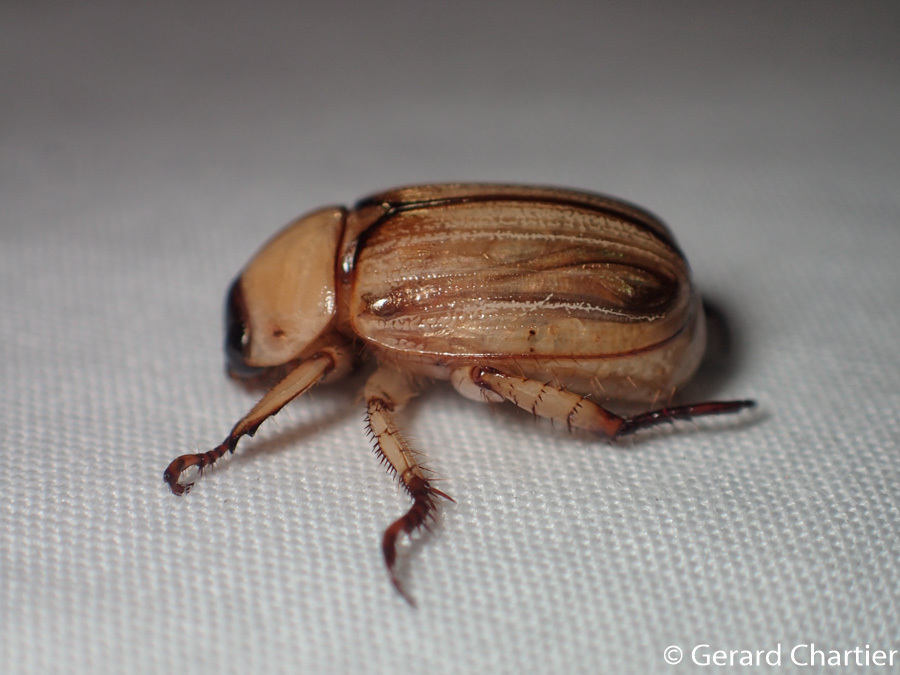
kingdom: Animalia
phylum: Arthropoda
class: Insecta
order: Coleoptera
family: Scarabaeidae
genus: Anomala
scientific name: Anomala pallida
